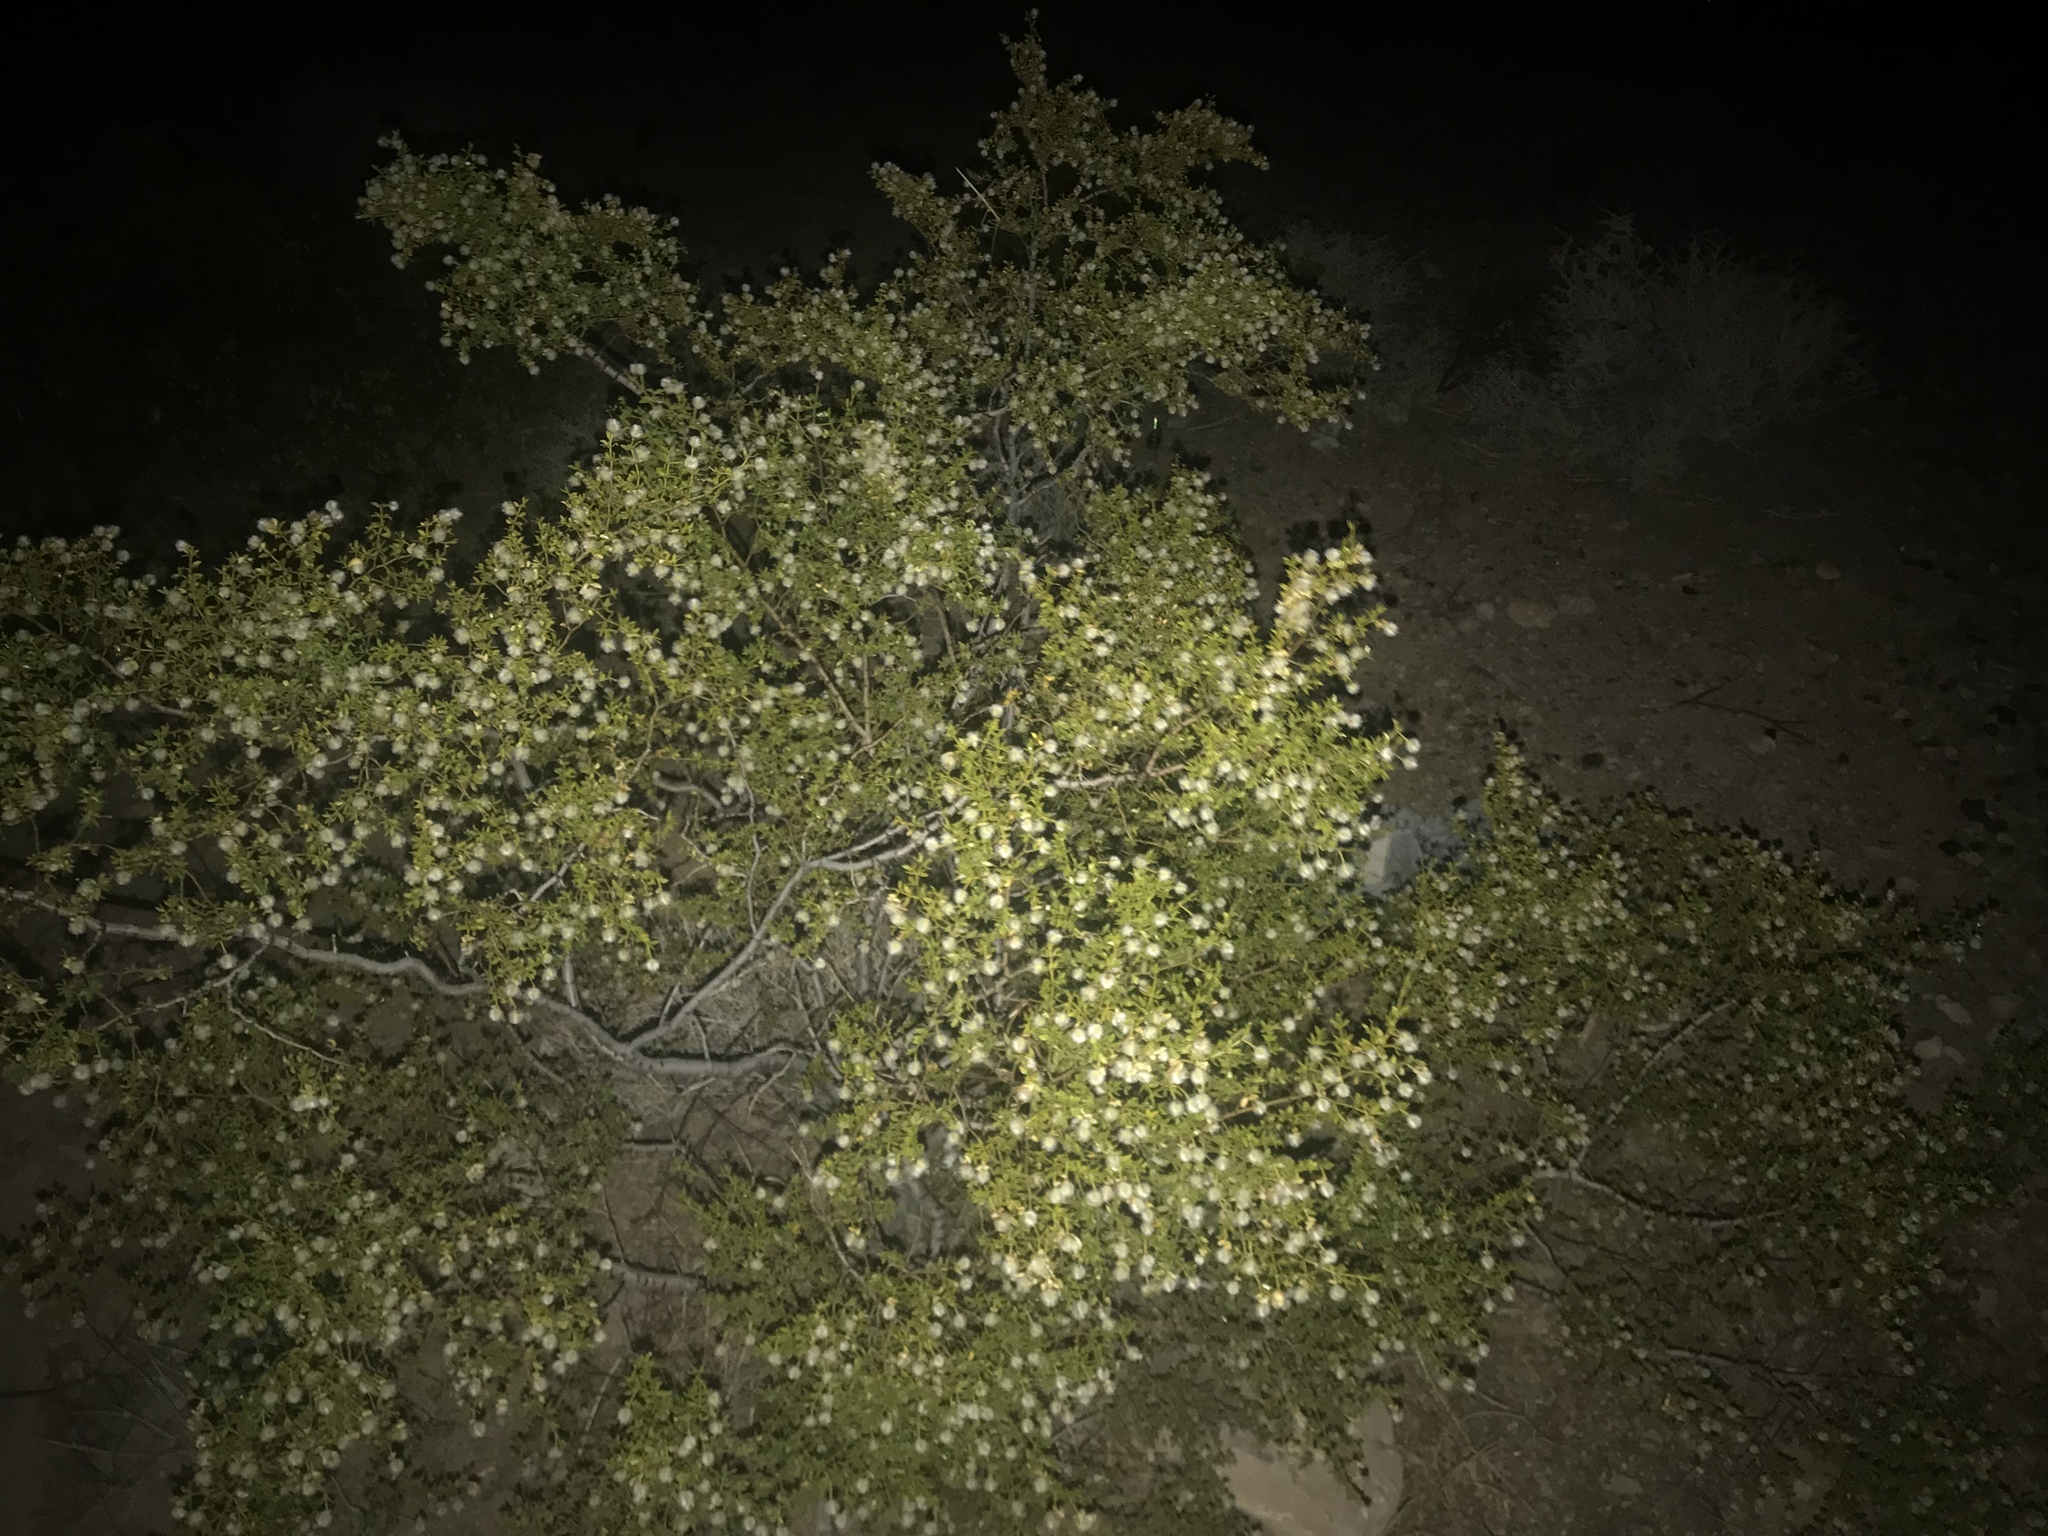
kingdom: Plantae
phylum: Tracheophyta
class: Magnoliopsida
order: Zygophyllales
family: Zygophyllaceae
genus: Larrea
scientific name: Larrea tridentata
